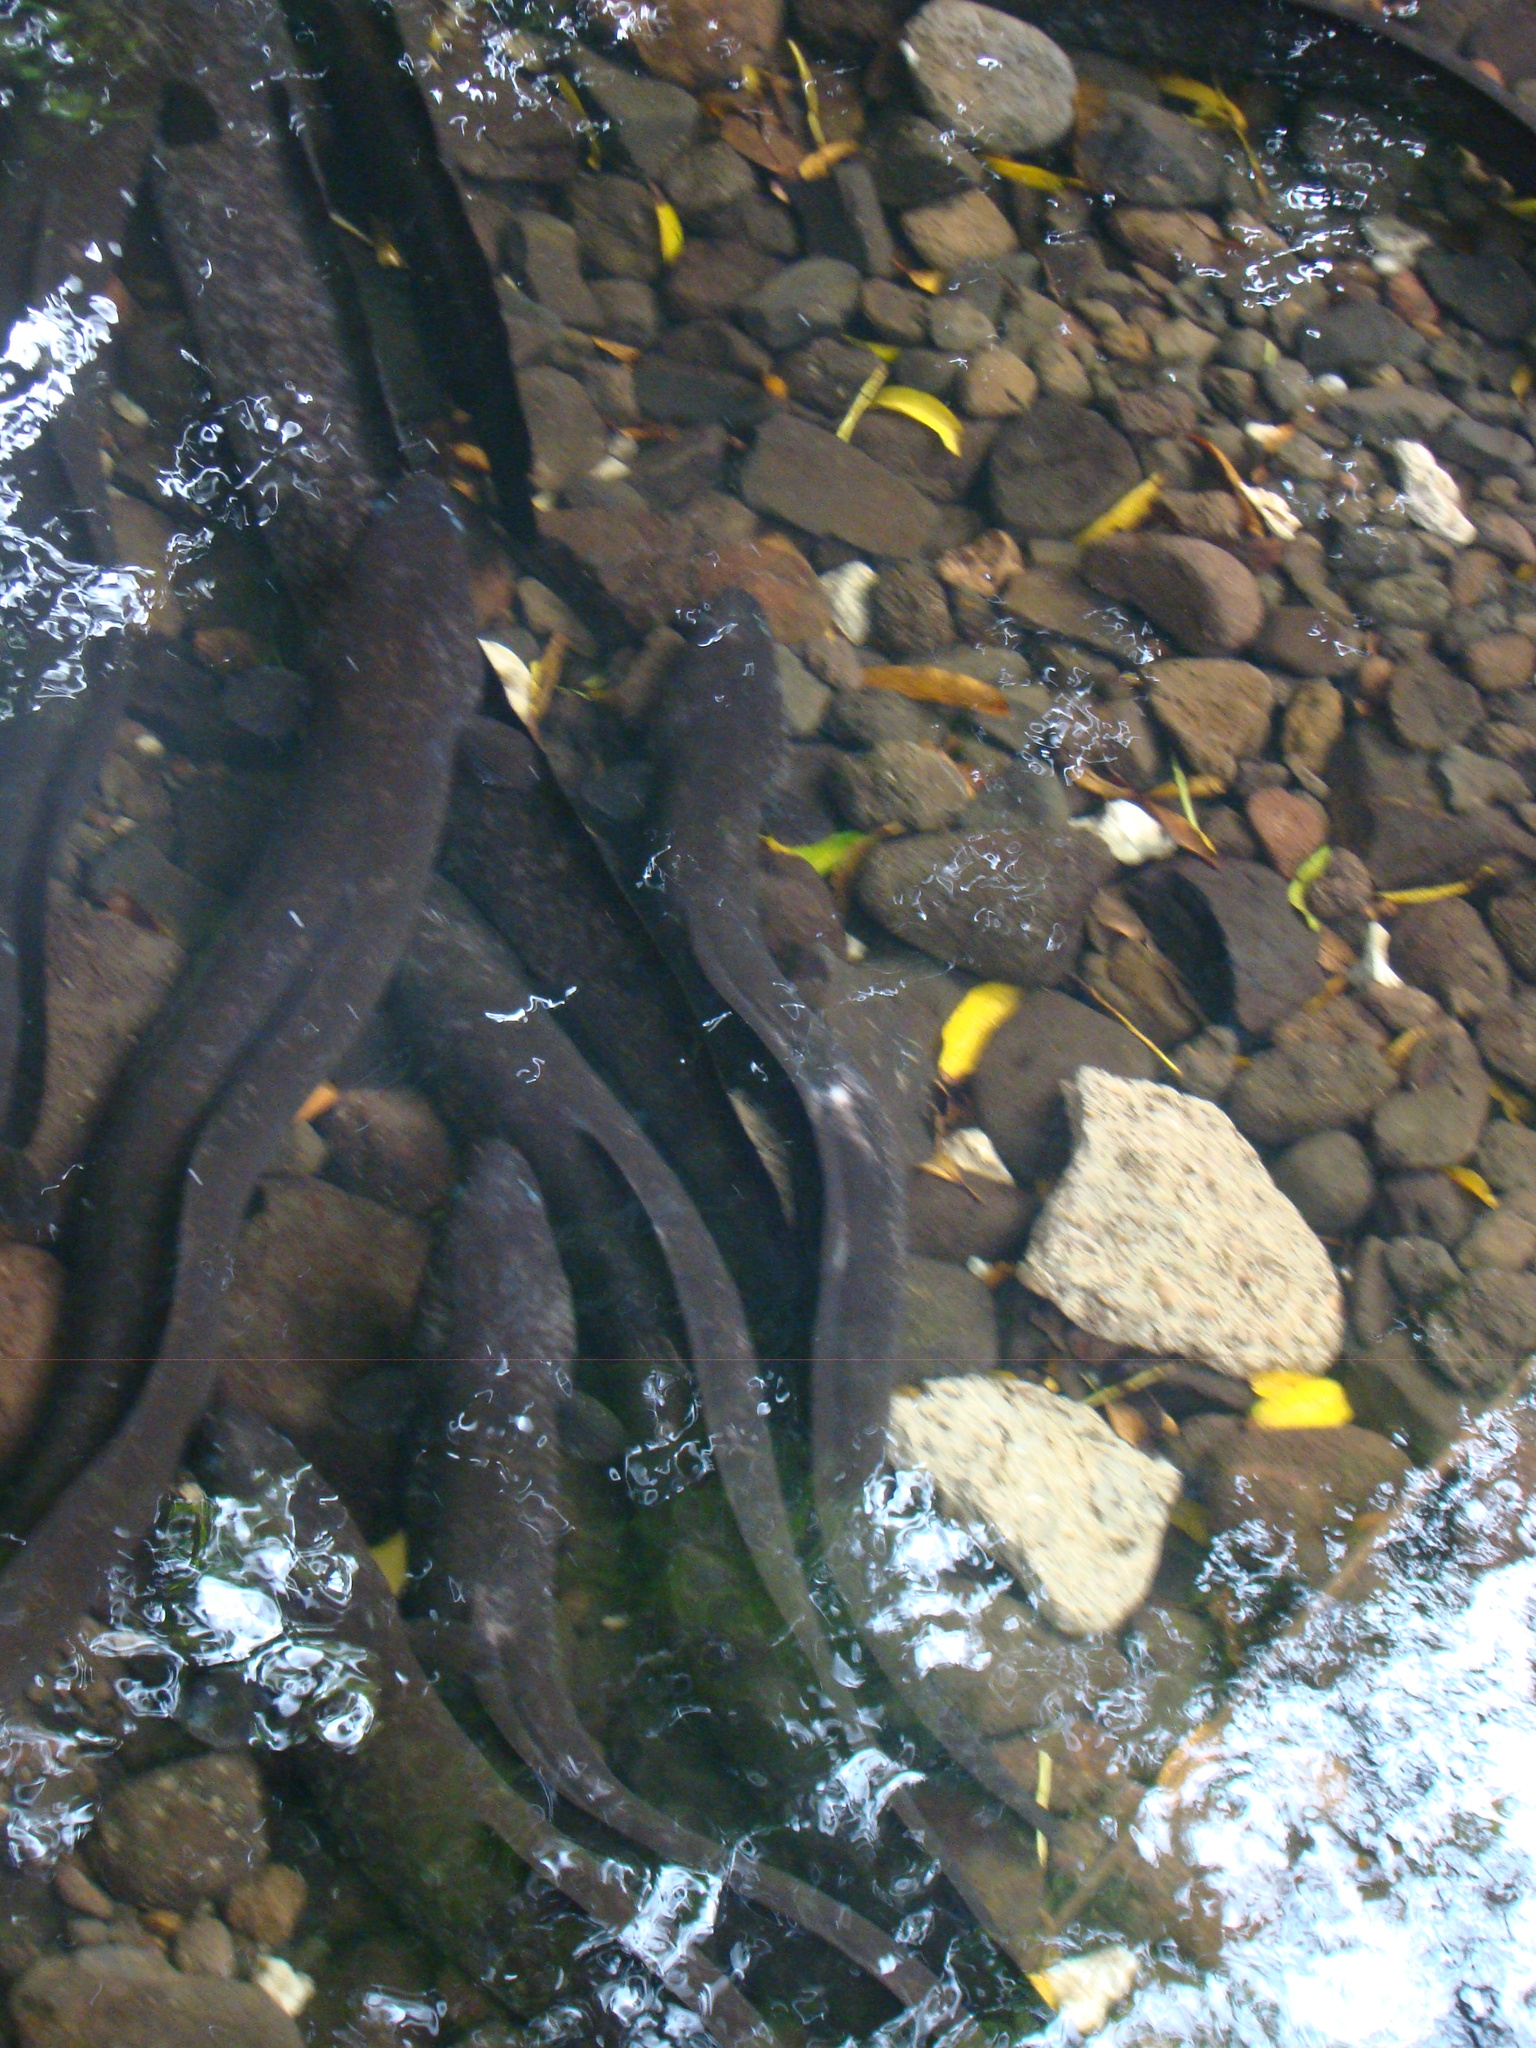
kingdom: Animalia
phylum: Chordata
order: Anguilliformes
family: Anguillidae
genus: Anguilla
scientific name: Anguilla marmorata
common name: Giant mottled eel
